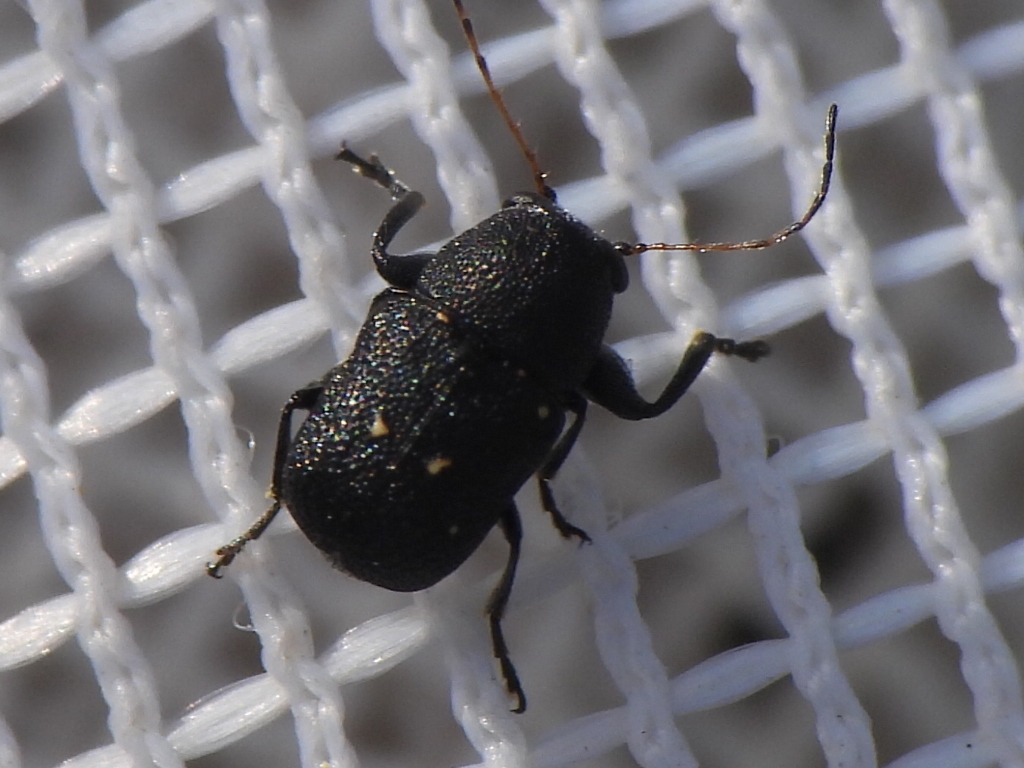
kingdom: Animalia
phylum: Arthropoda
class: Insecta
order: Coleoptera
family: Chrysomelidae
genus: Pachybrachis
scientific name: Pachybrachis stygicus
